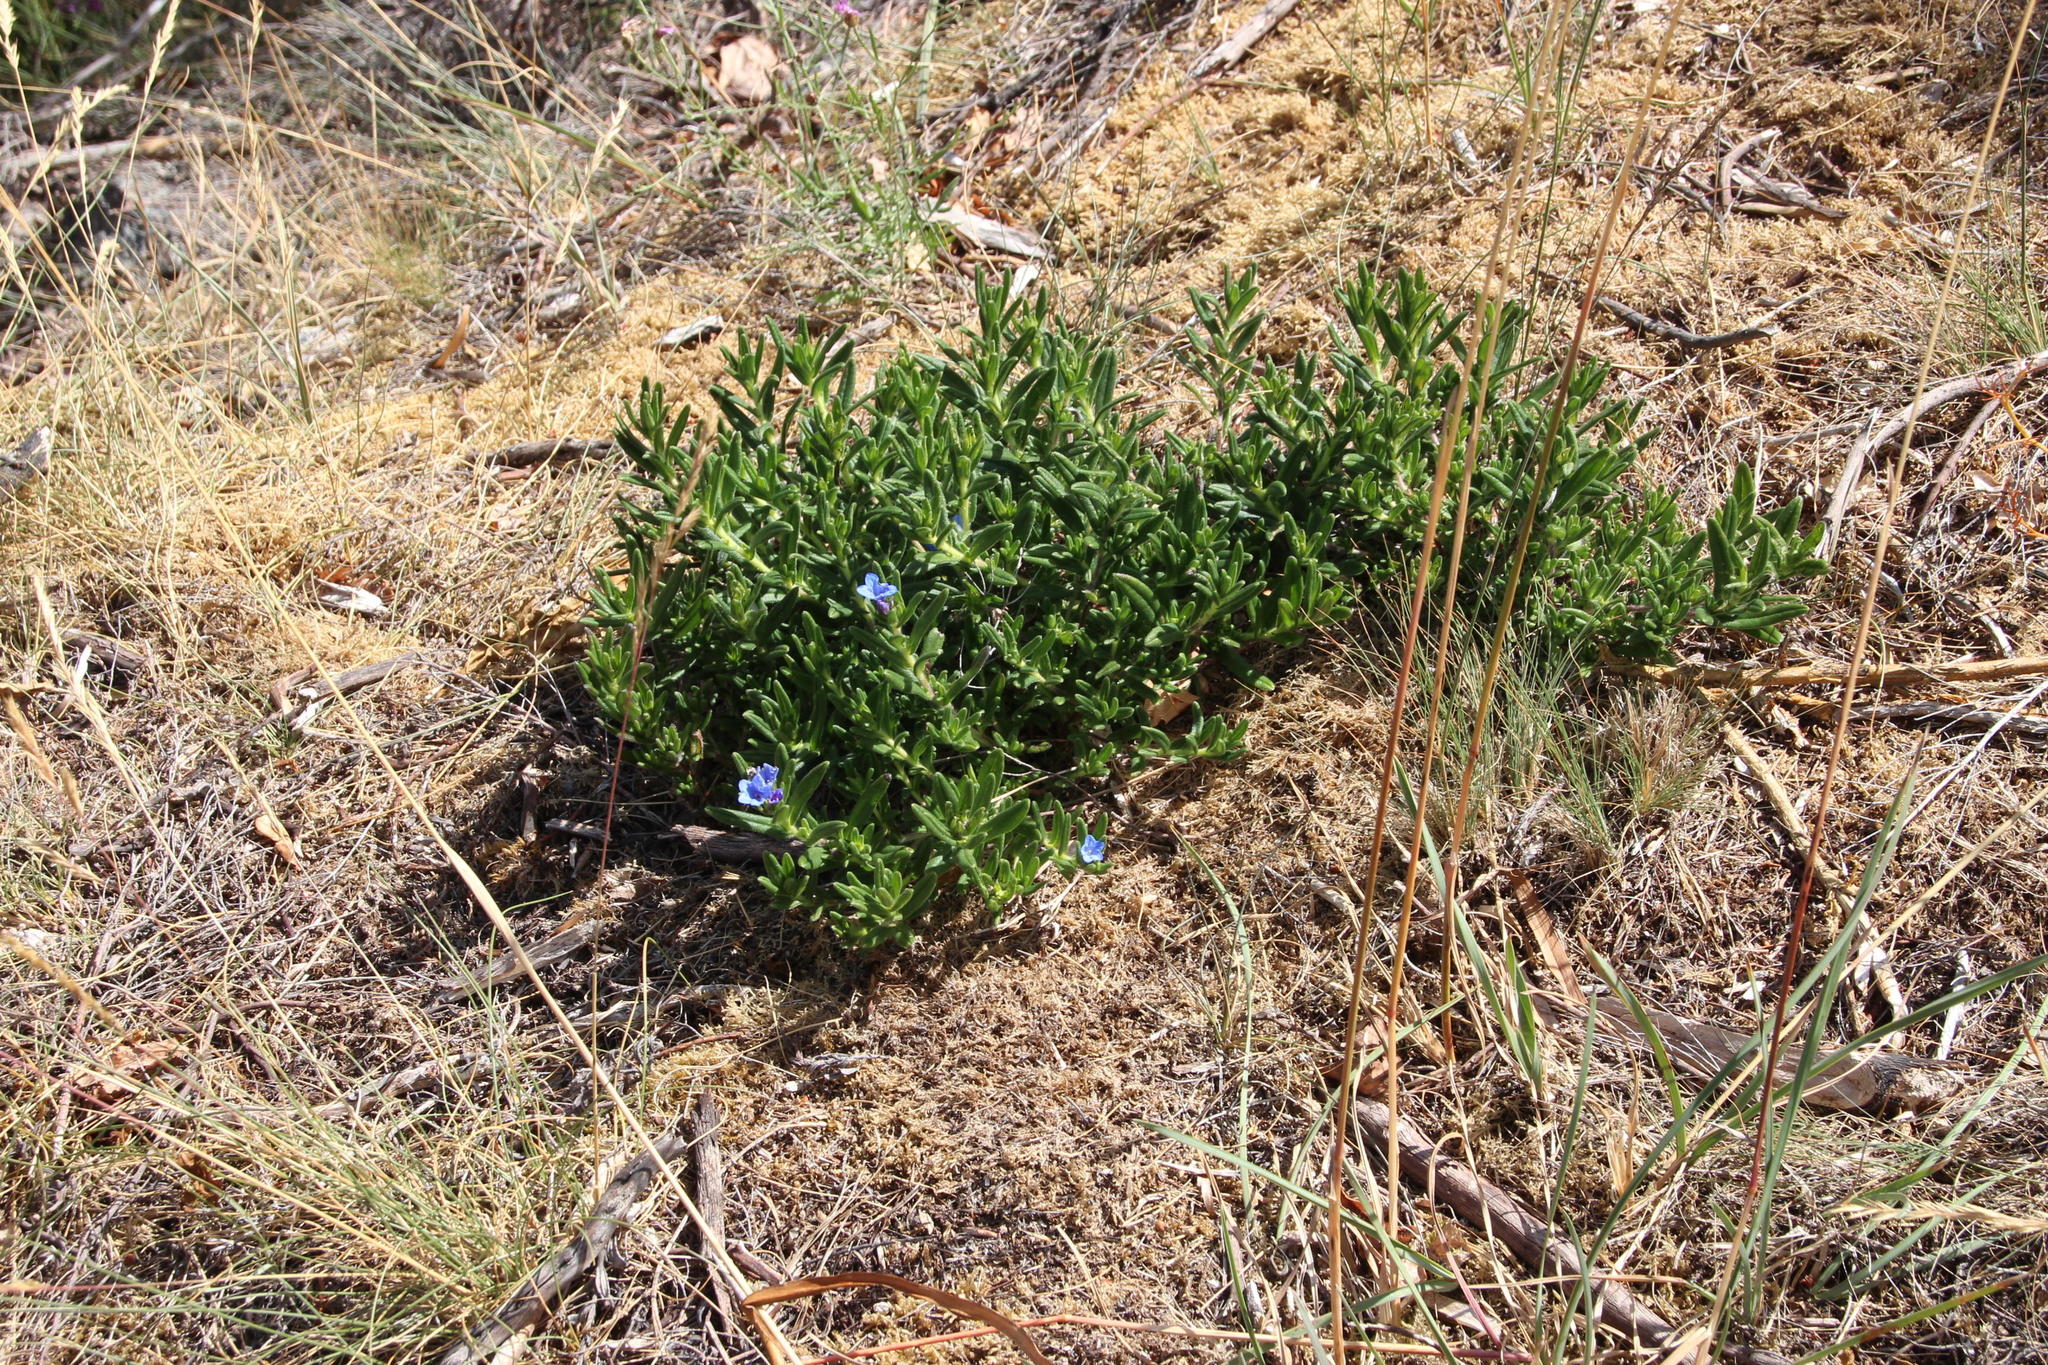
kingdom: Plantae
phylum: Tracheophyta
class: Magnoliopsida
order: Boraginales
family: Boraginaceae
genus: Glandora
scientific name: Glandora prostrata
